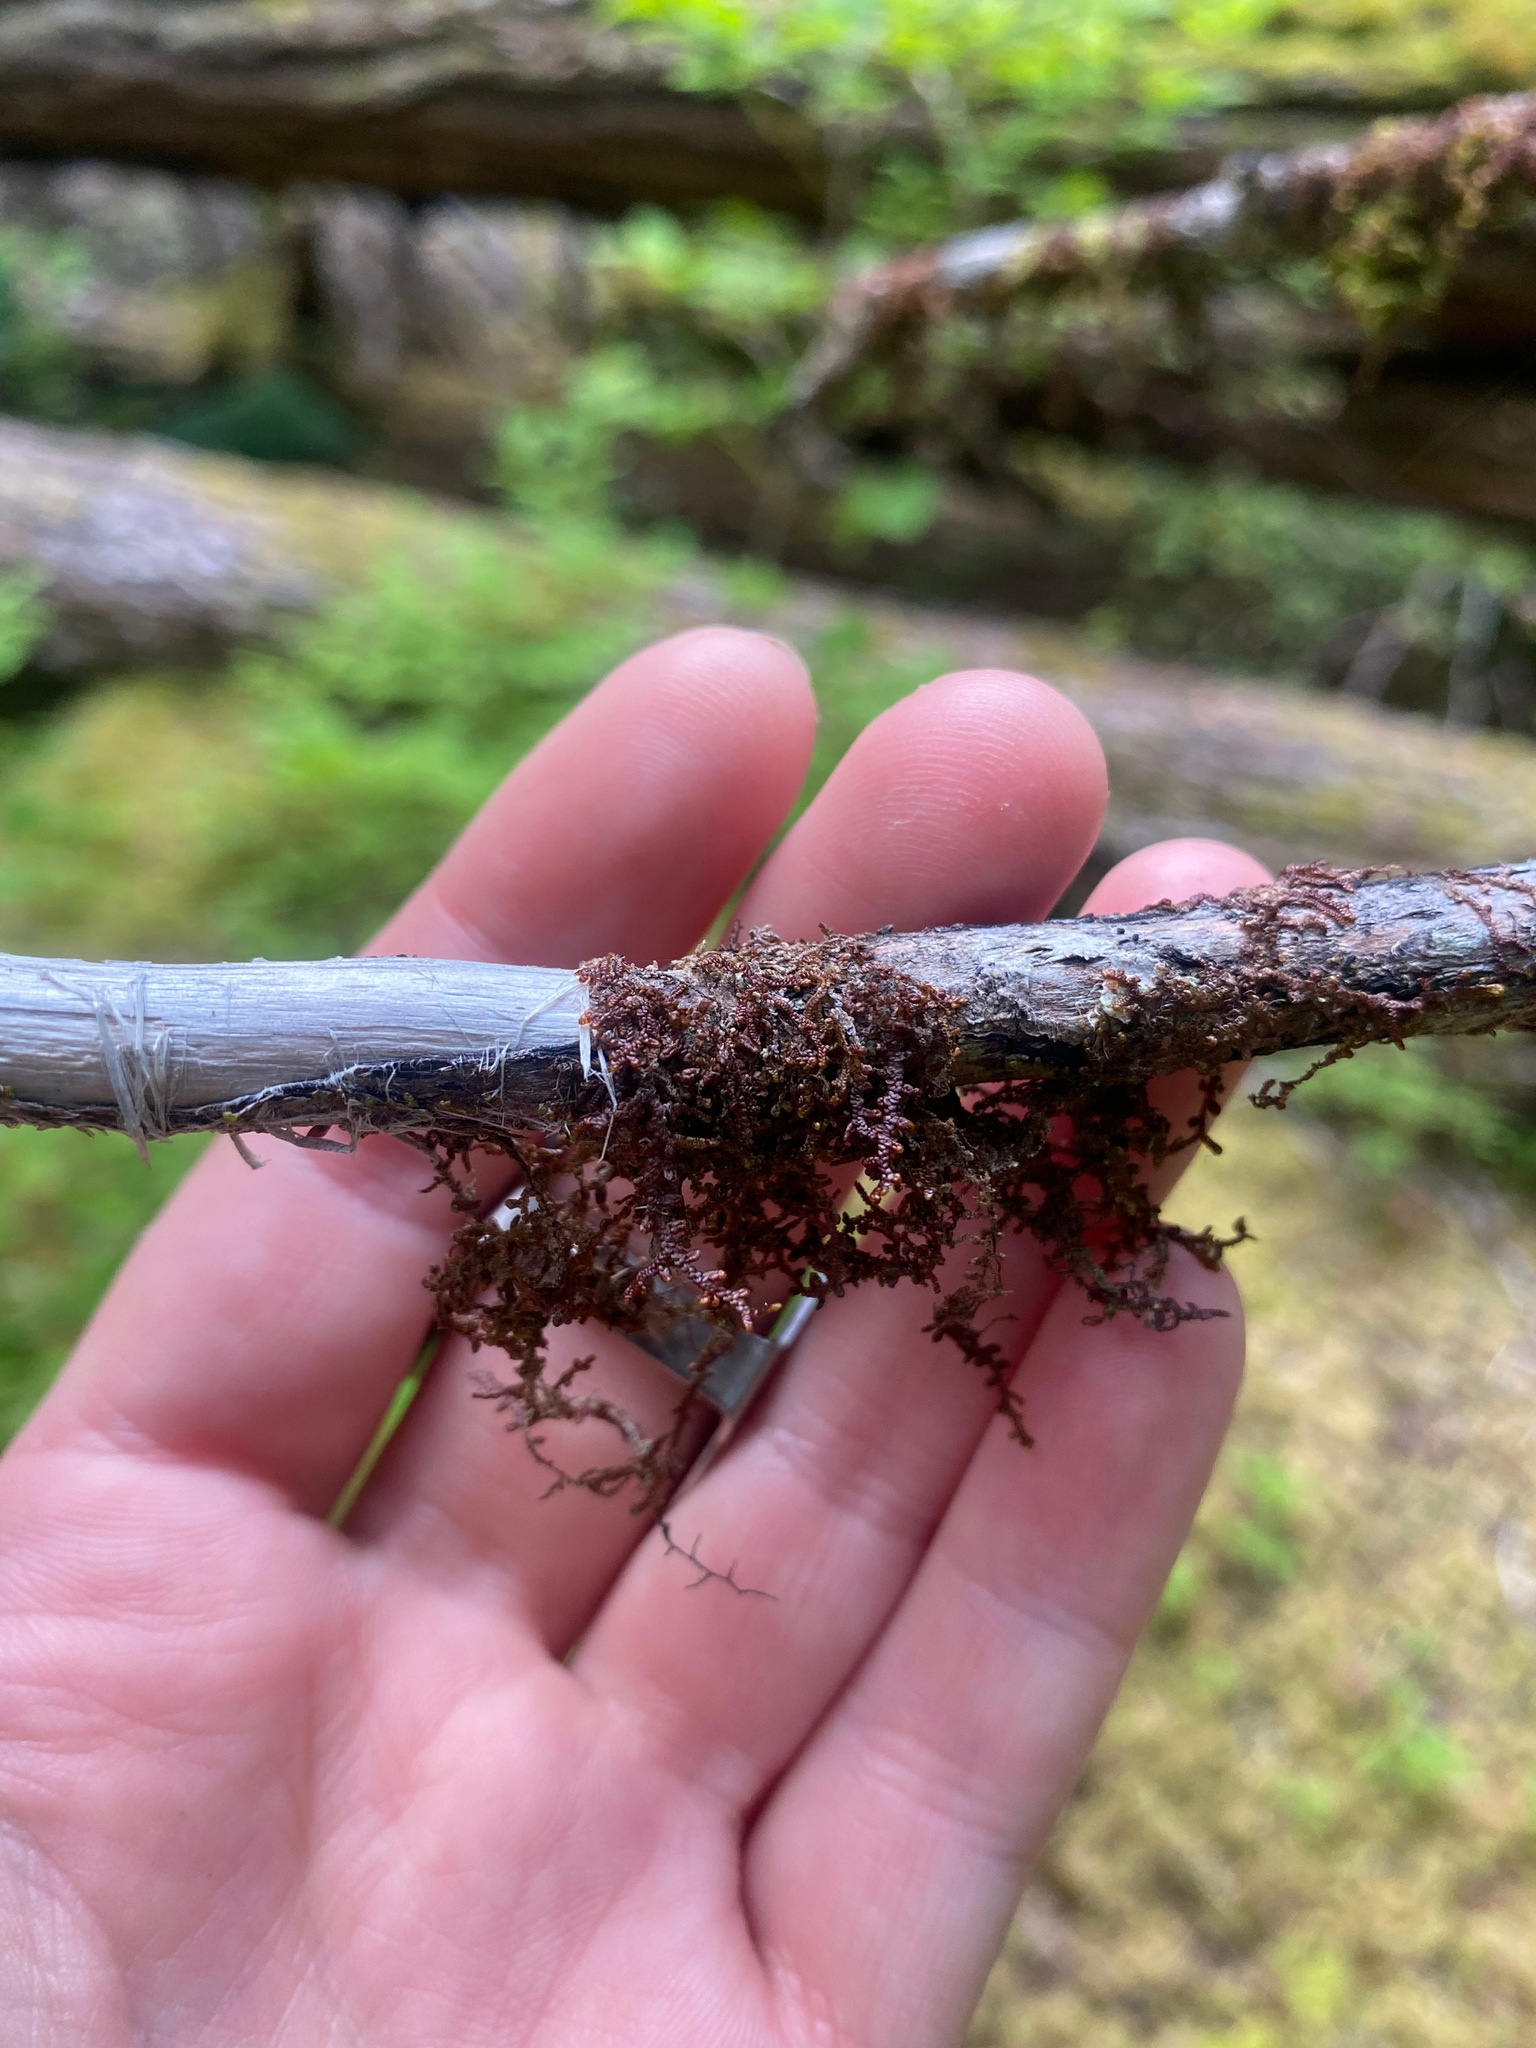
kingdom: Plantae
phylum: Marchantiophyta
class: Jungermanniopsida
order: Porellales
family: Frullaniaceae
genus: Frullania
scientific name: Frullania nisquallensis
